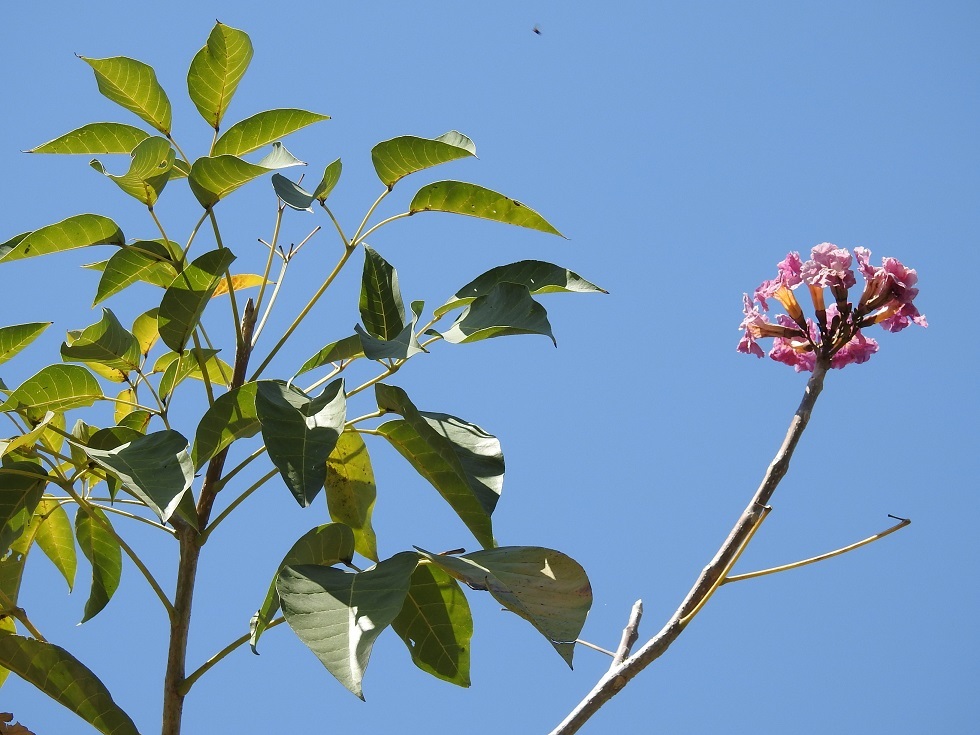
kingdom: Plantae
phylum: Tracheophyta
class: Magnoliopsida
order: Lamiales
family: Bignoniaceae
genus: Tabebuia
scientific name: Tabebuia rosea
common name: Pink poui
